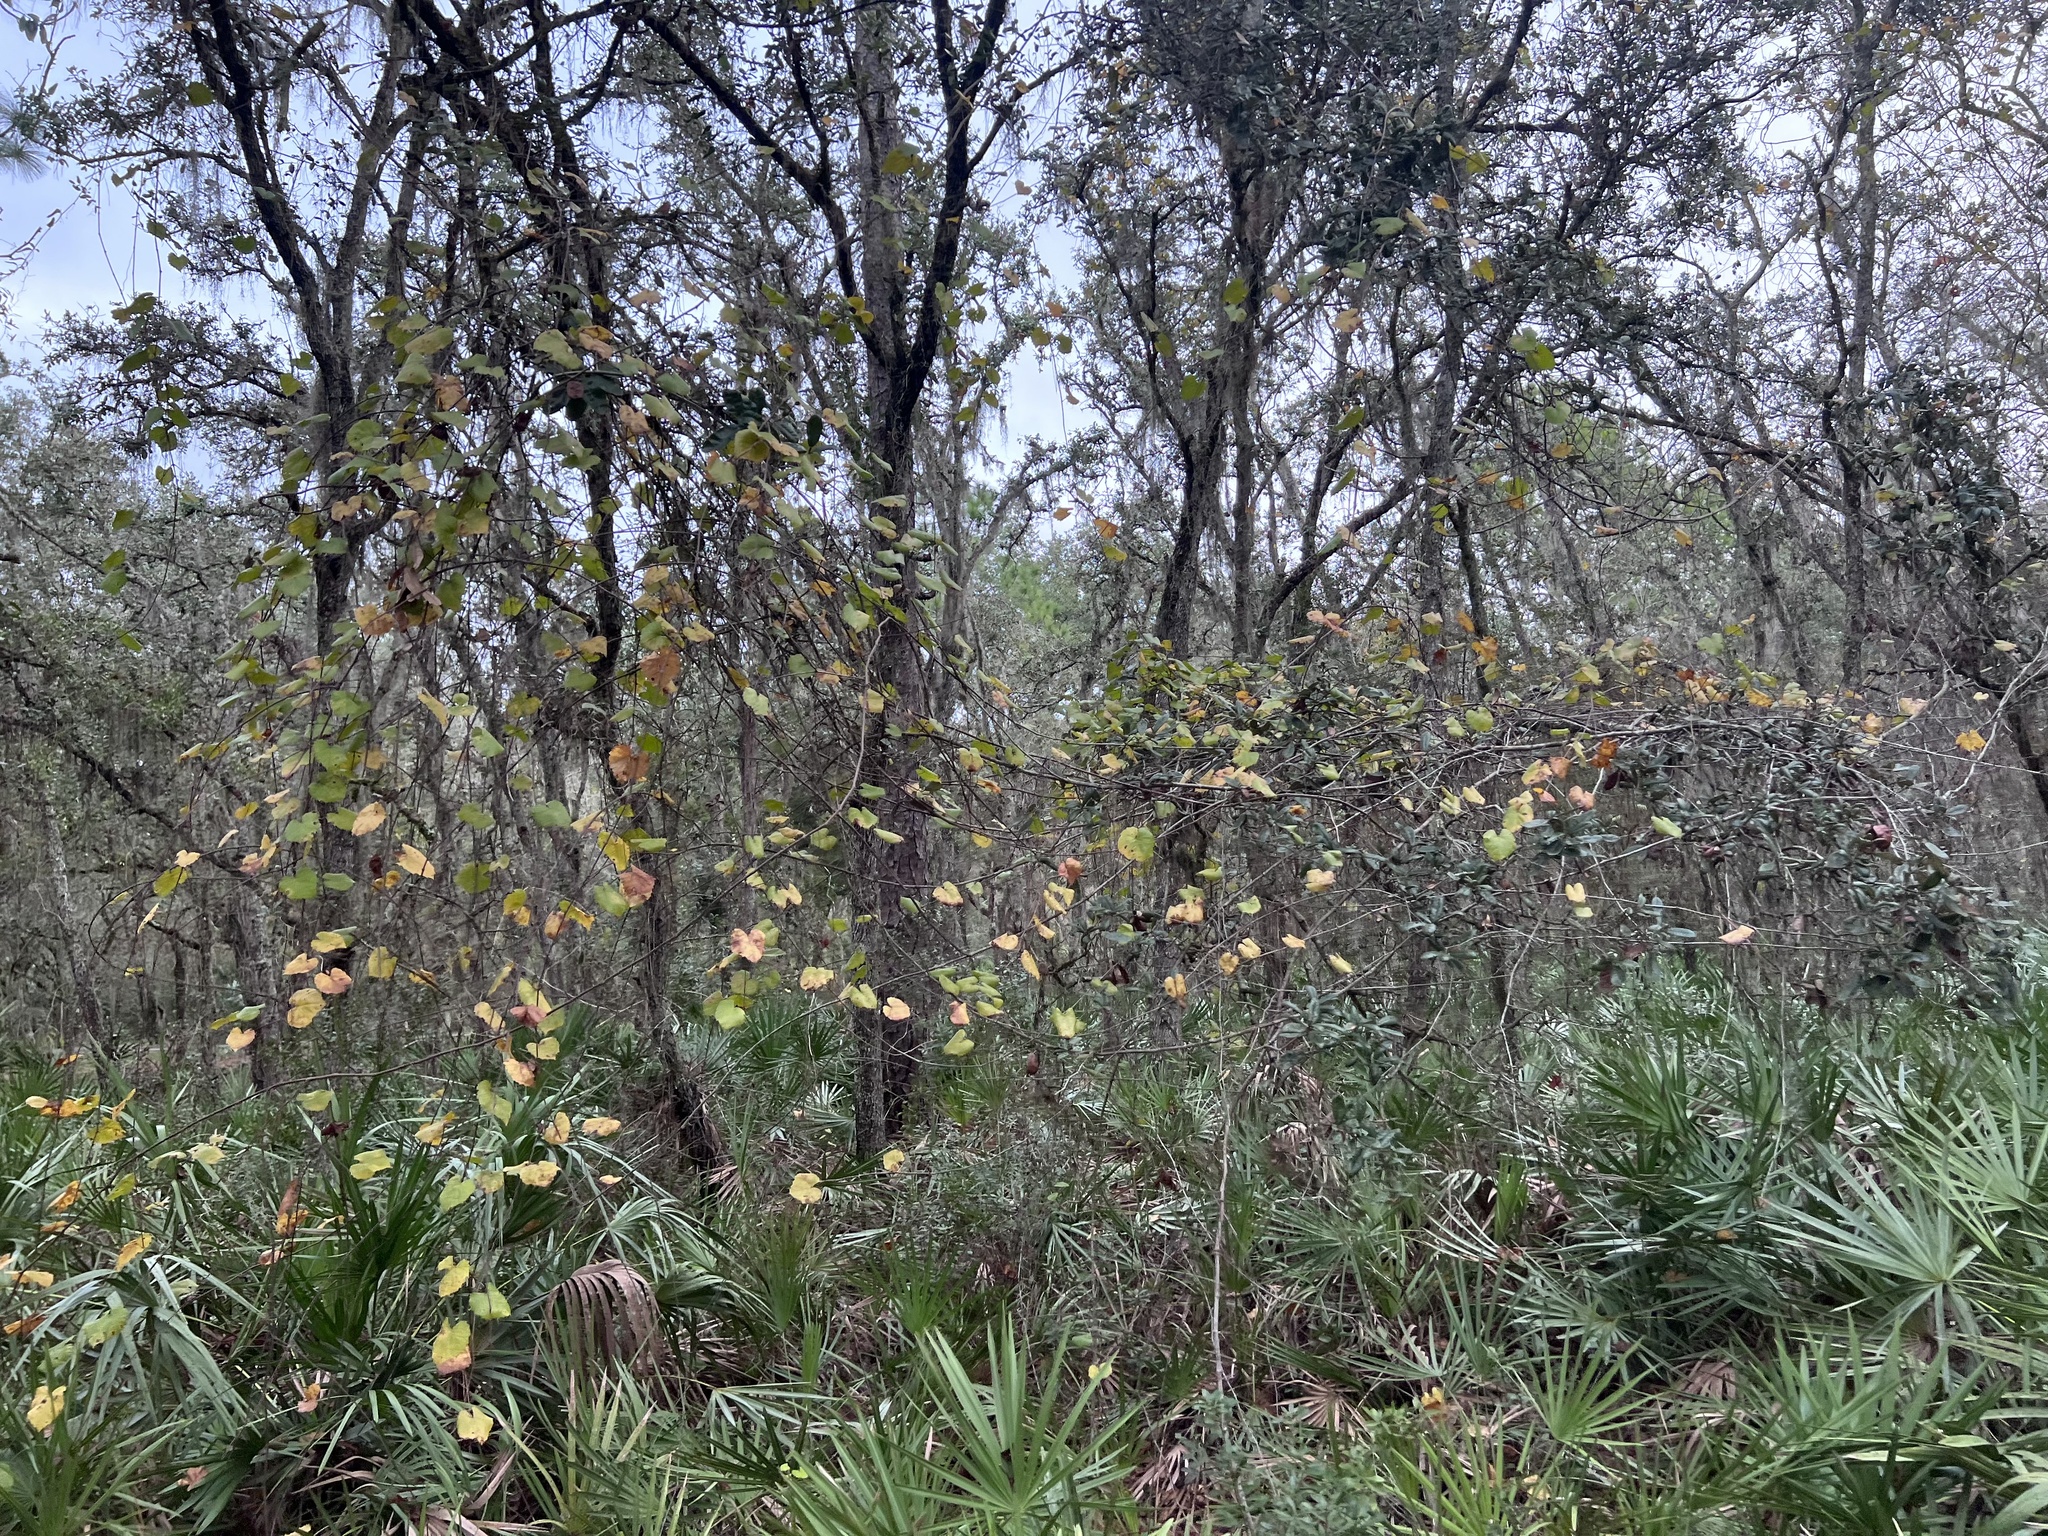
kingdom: Plantae
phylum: Tracheophyta
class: Magnoliopsida
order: Vitales
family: Vitaceae
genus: Vitis
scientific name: Vitis rotundifolia
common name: Muscadine grape
